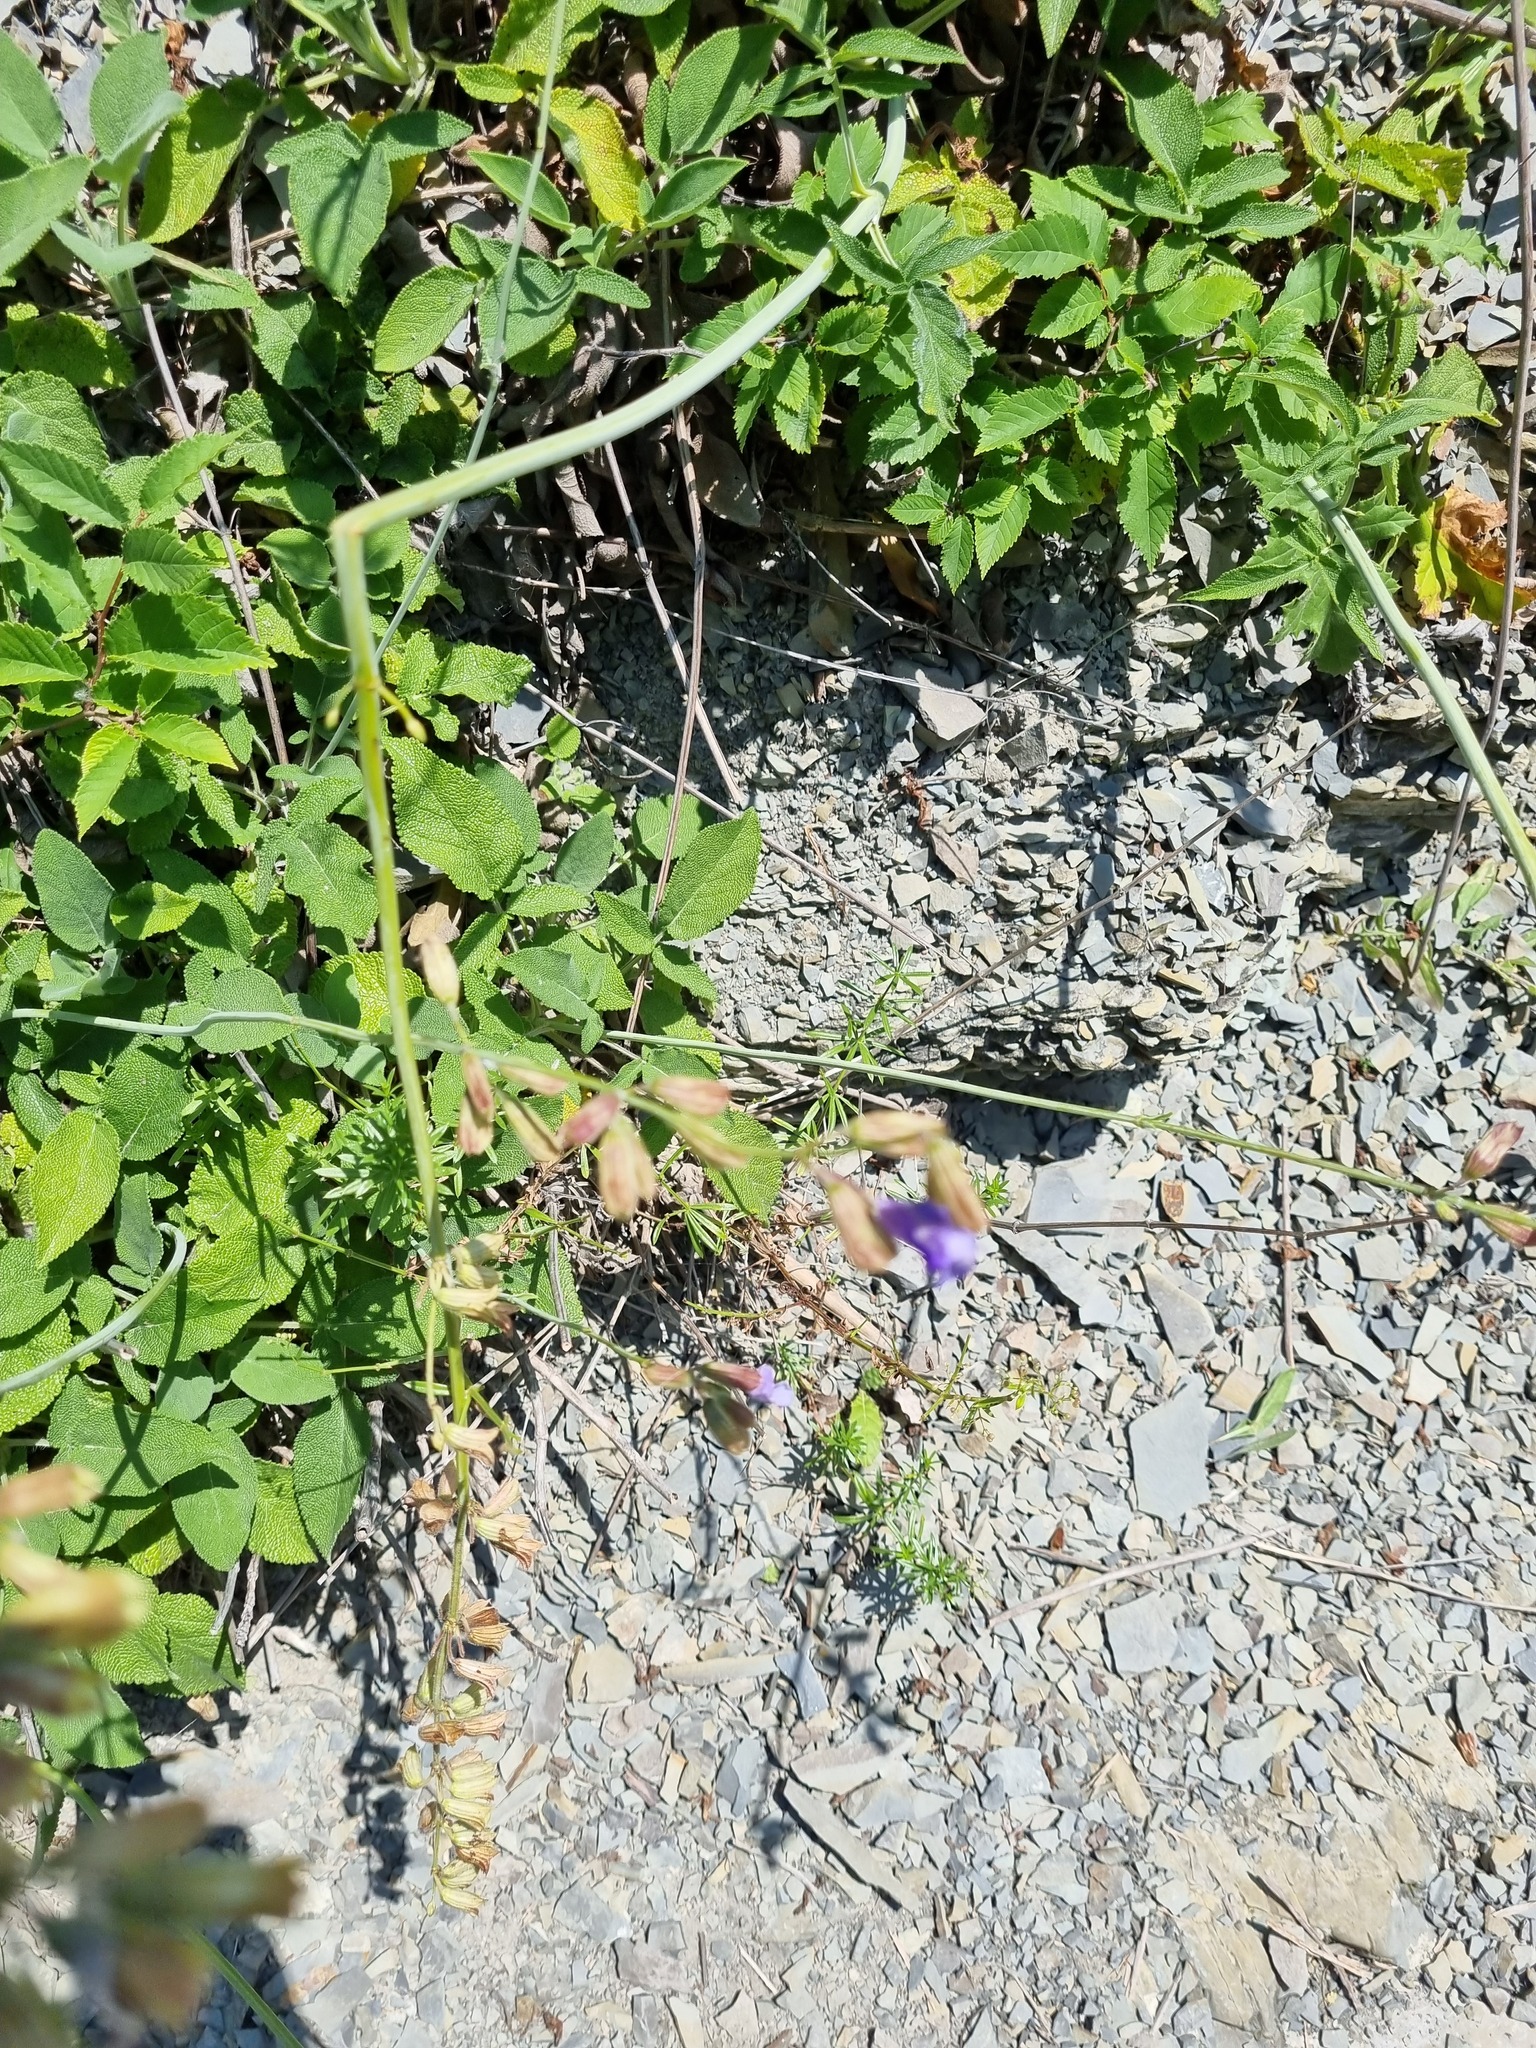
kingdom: Plantae
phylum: Tracheophyta
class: Magnoliopsida
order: Lamiales
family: Lamiaceae
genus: Salvia
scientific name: Salvia ringens
